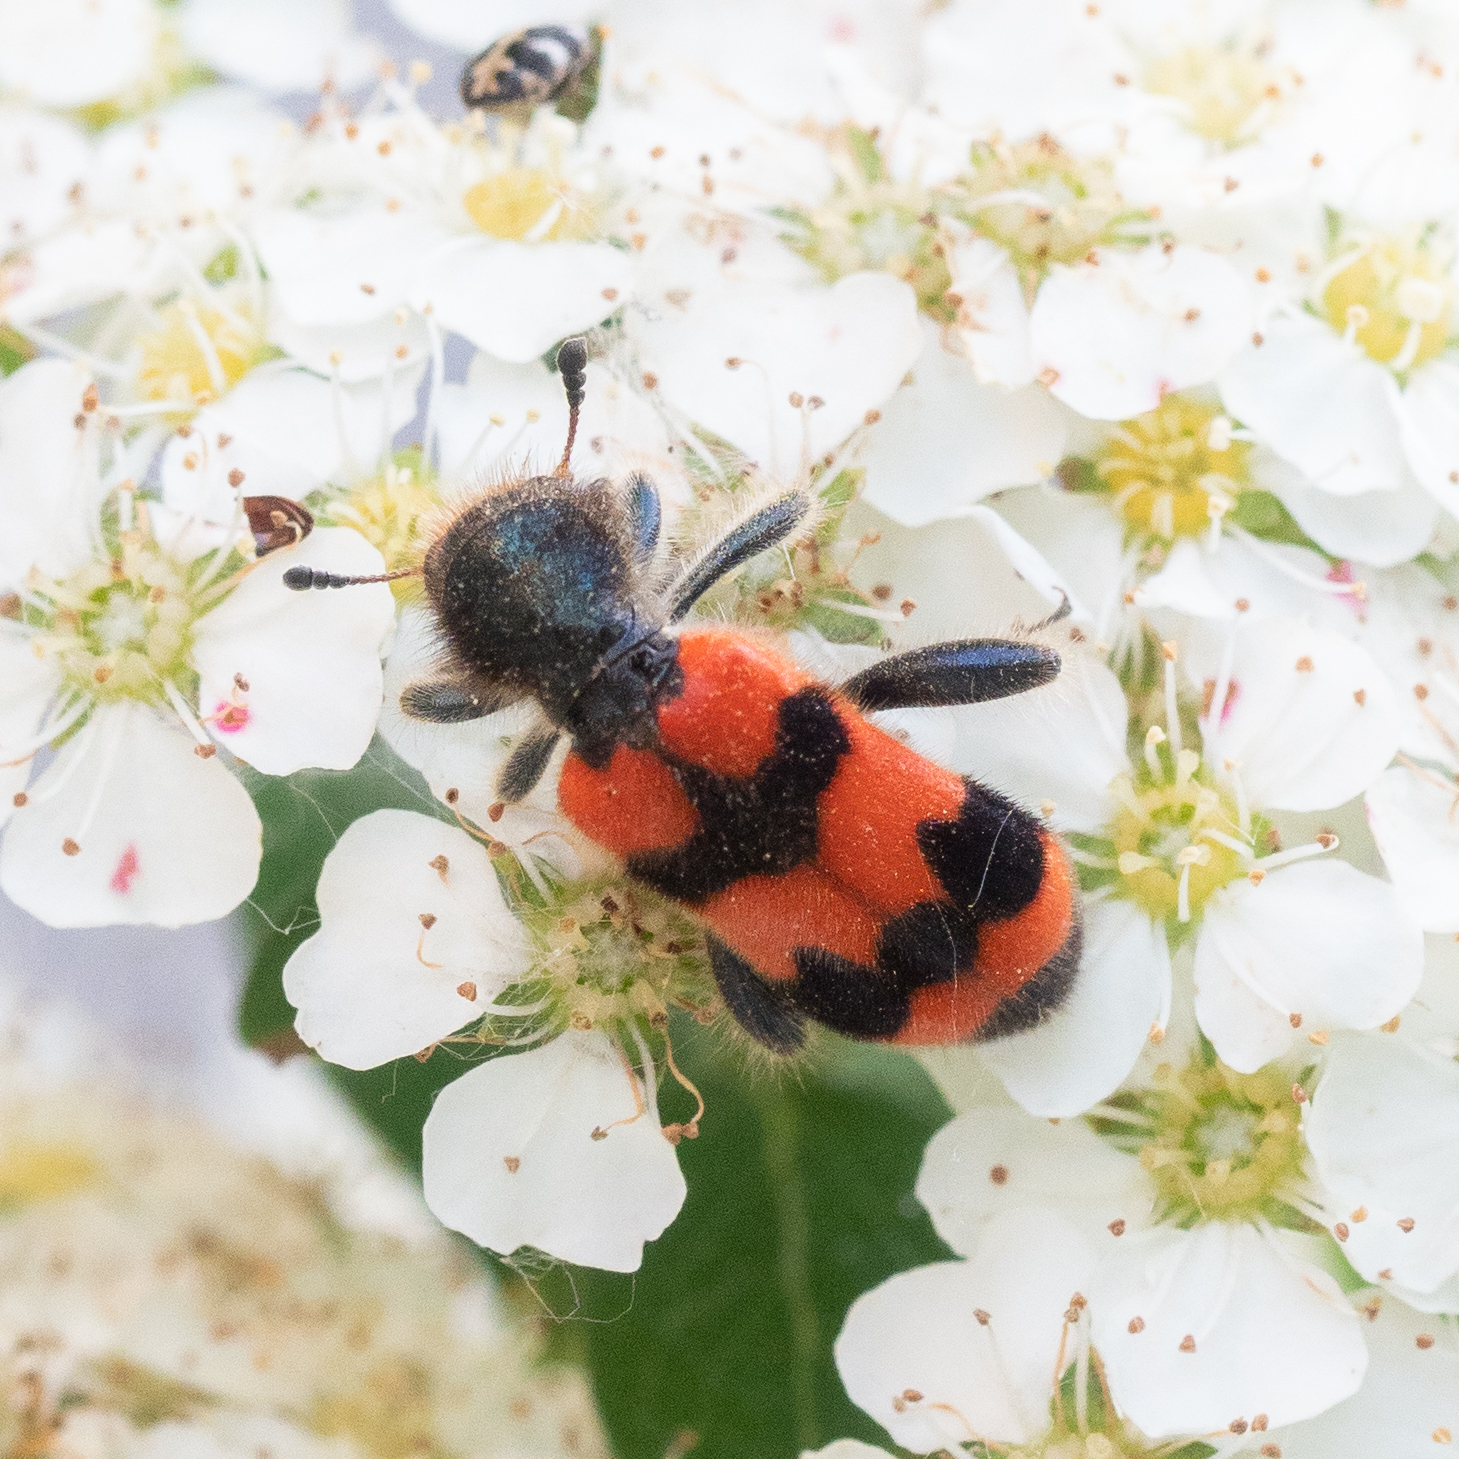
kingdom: Animalia
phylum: Arthropoda
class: Insecta
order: Coleoptera
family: Cleridae
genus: Trichodes
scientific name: Trichodes apiarius
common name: Bee-eating beetle
